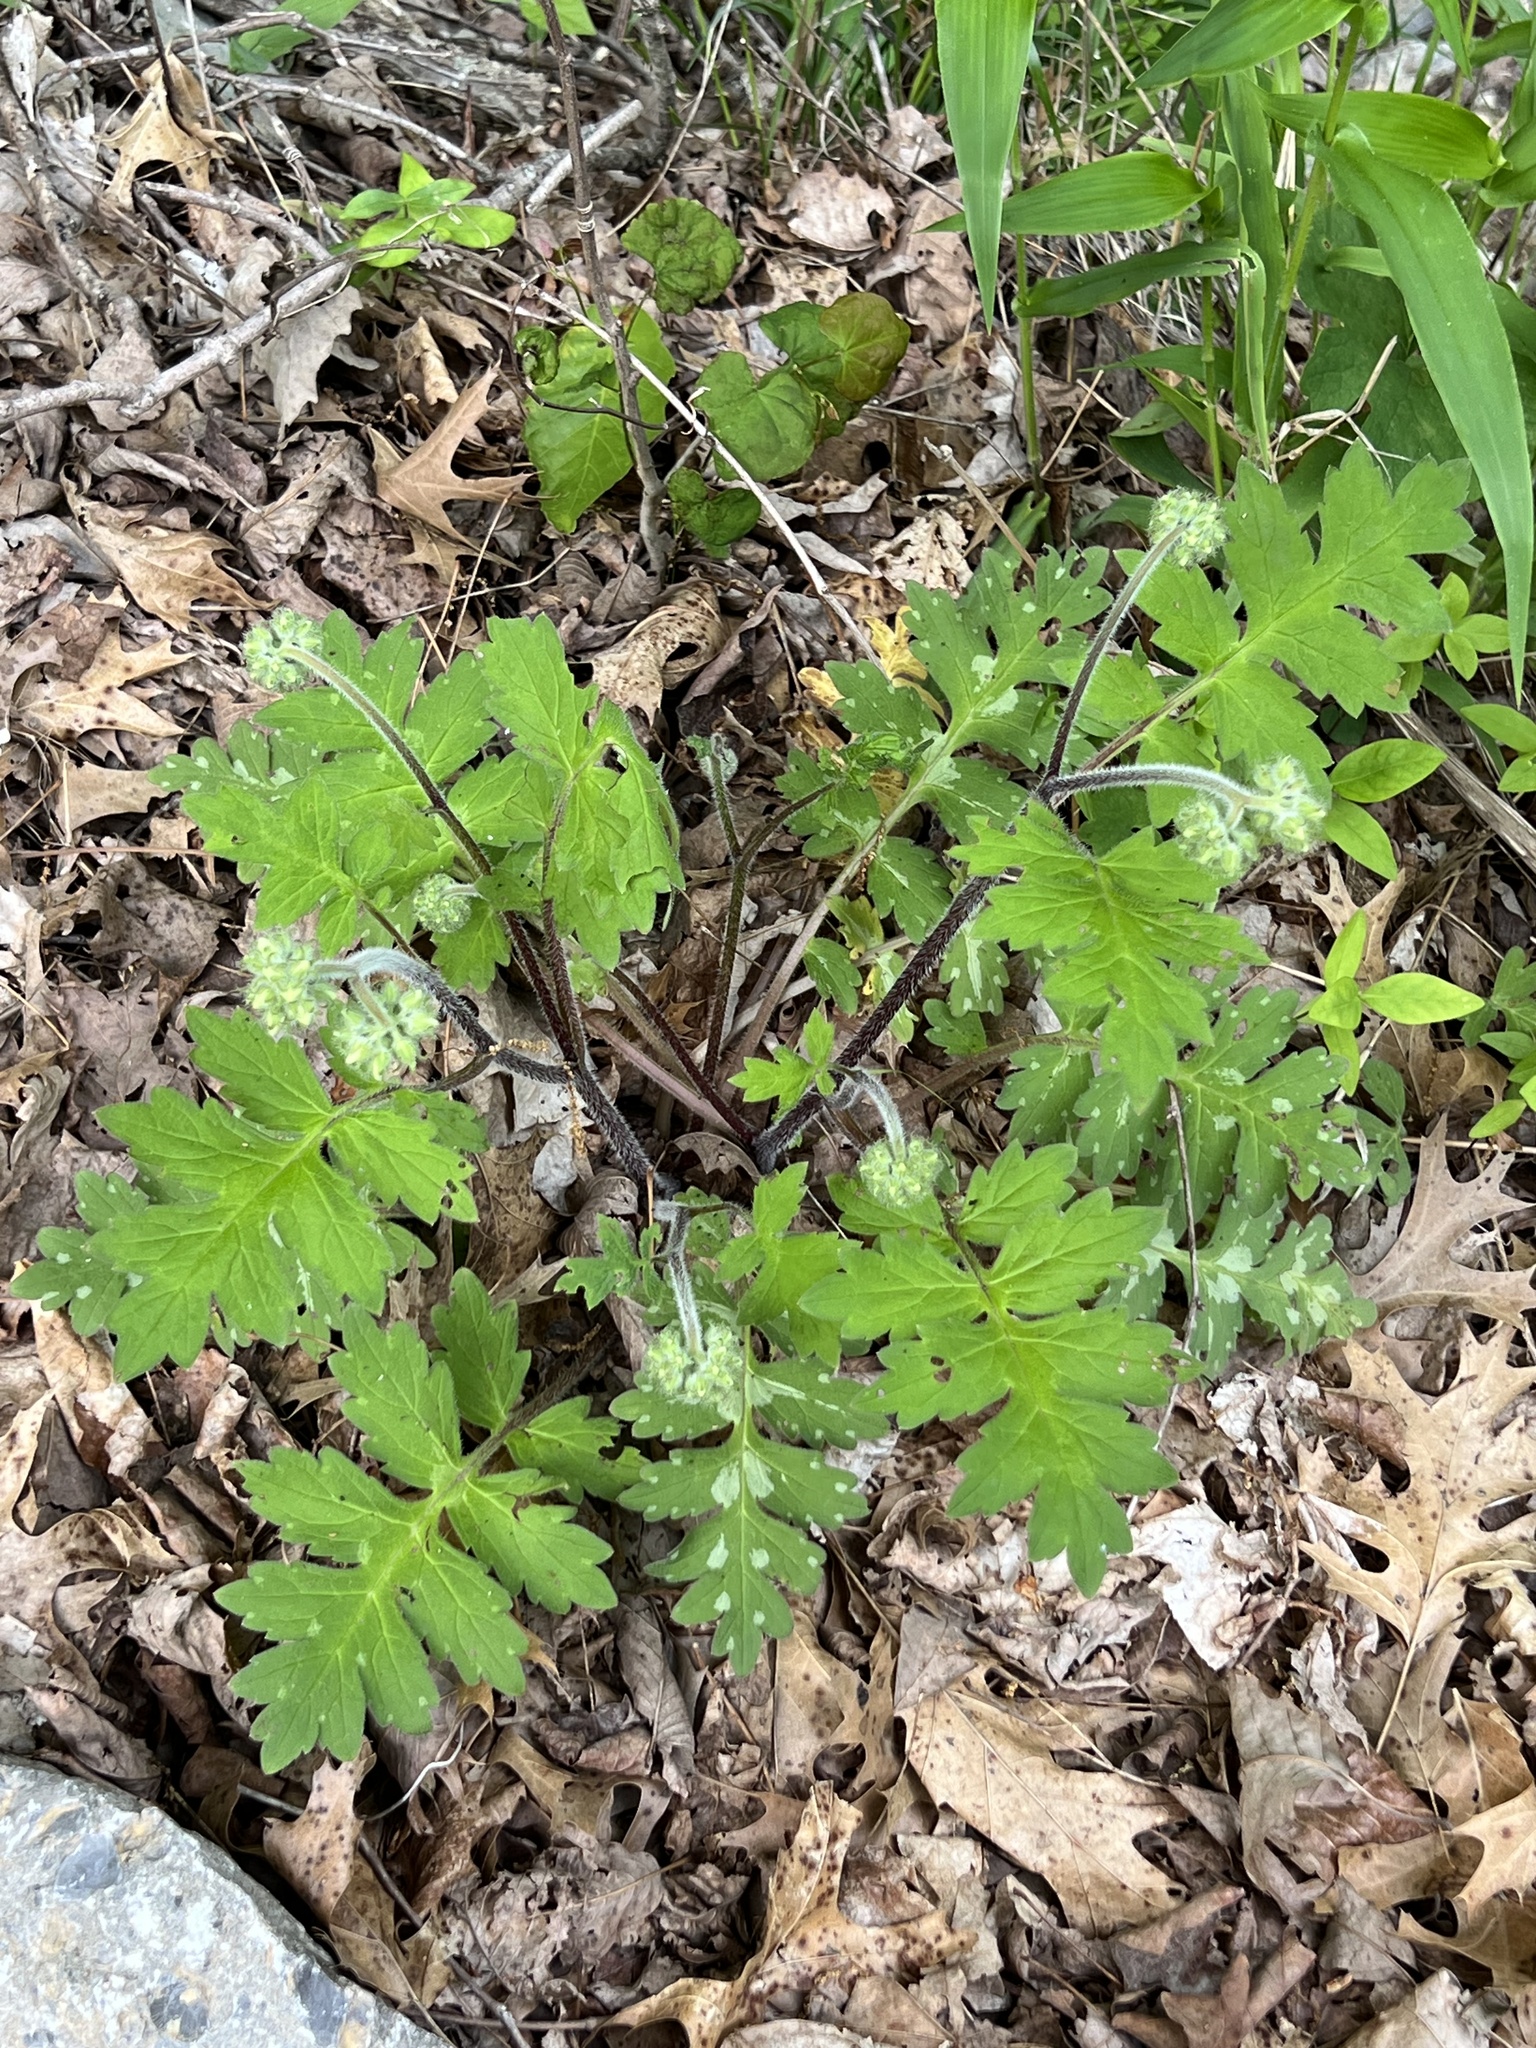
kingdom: Plantae
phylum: Tracheophyta
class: Magnoliopsida
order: Boraginales
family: Hydrophyllaceae
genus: Hydrophyllum
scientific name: Hydrophyllum macrophyllum
